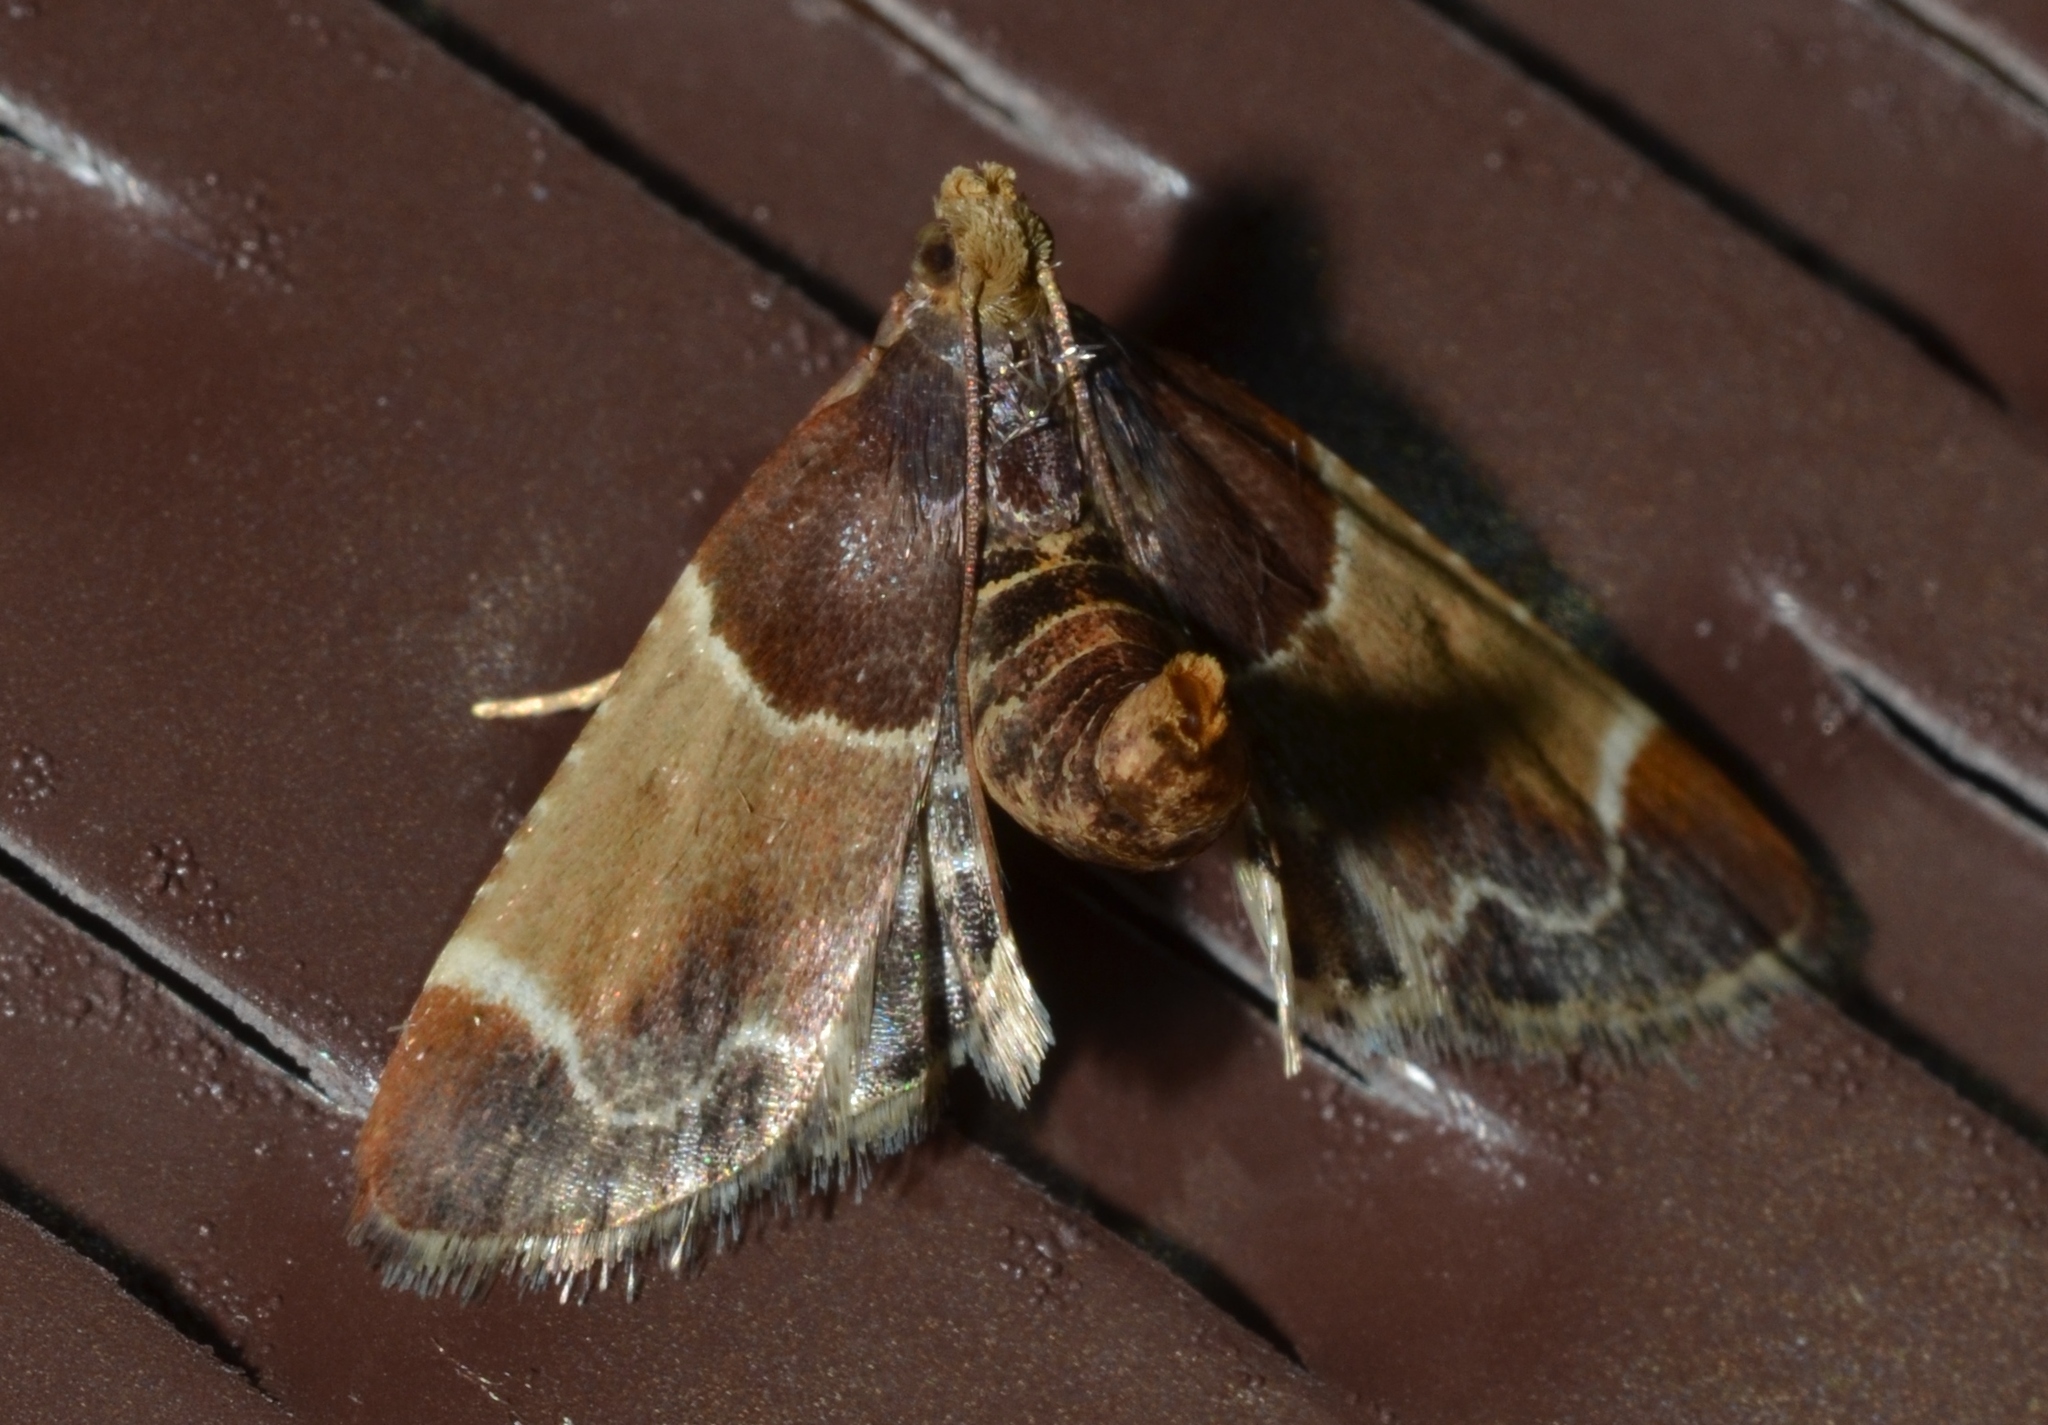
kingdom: Animalia
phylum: Arthropoda
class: Insecta
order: Lepidoptera
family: Pyralidae
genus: Pyralis
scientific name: Pyralis farinalis
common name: Meal moth
